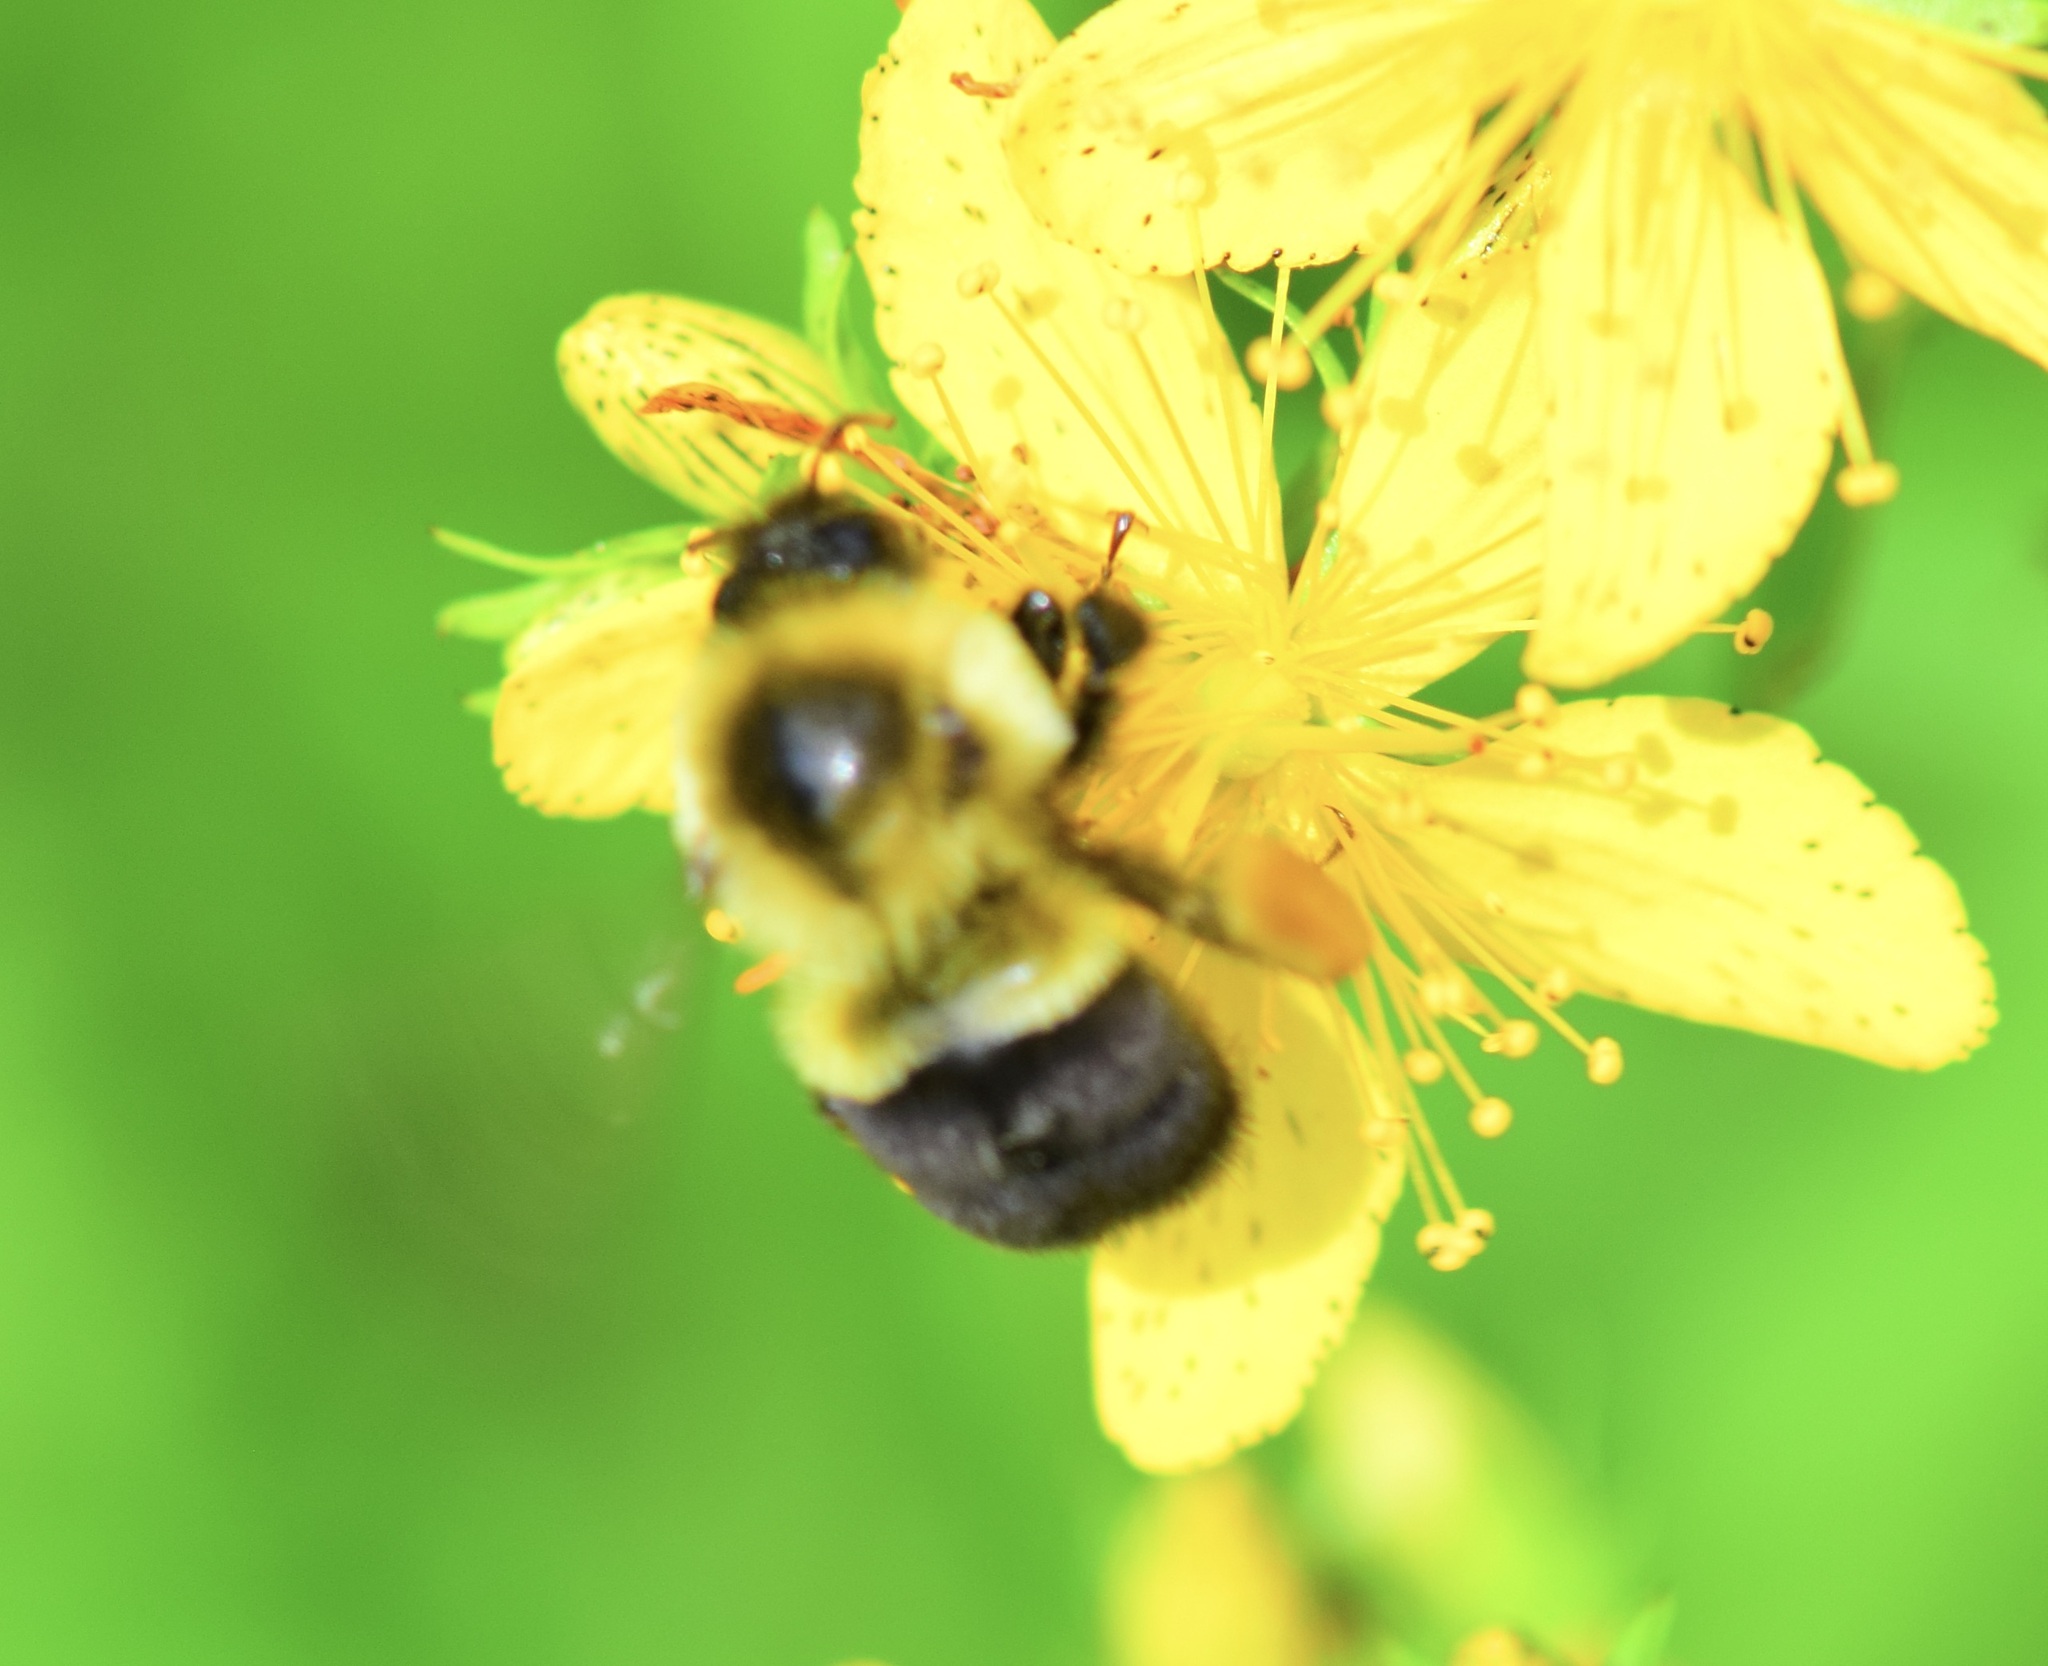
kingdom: Animalia
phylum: Arthropoda
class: Insecta
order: Hymenoptera
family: Apidae
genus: Bombus
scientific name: Bombus impatiens
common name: Common eastern bumble bee
